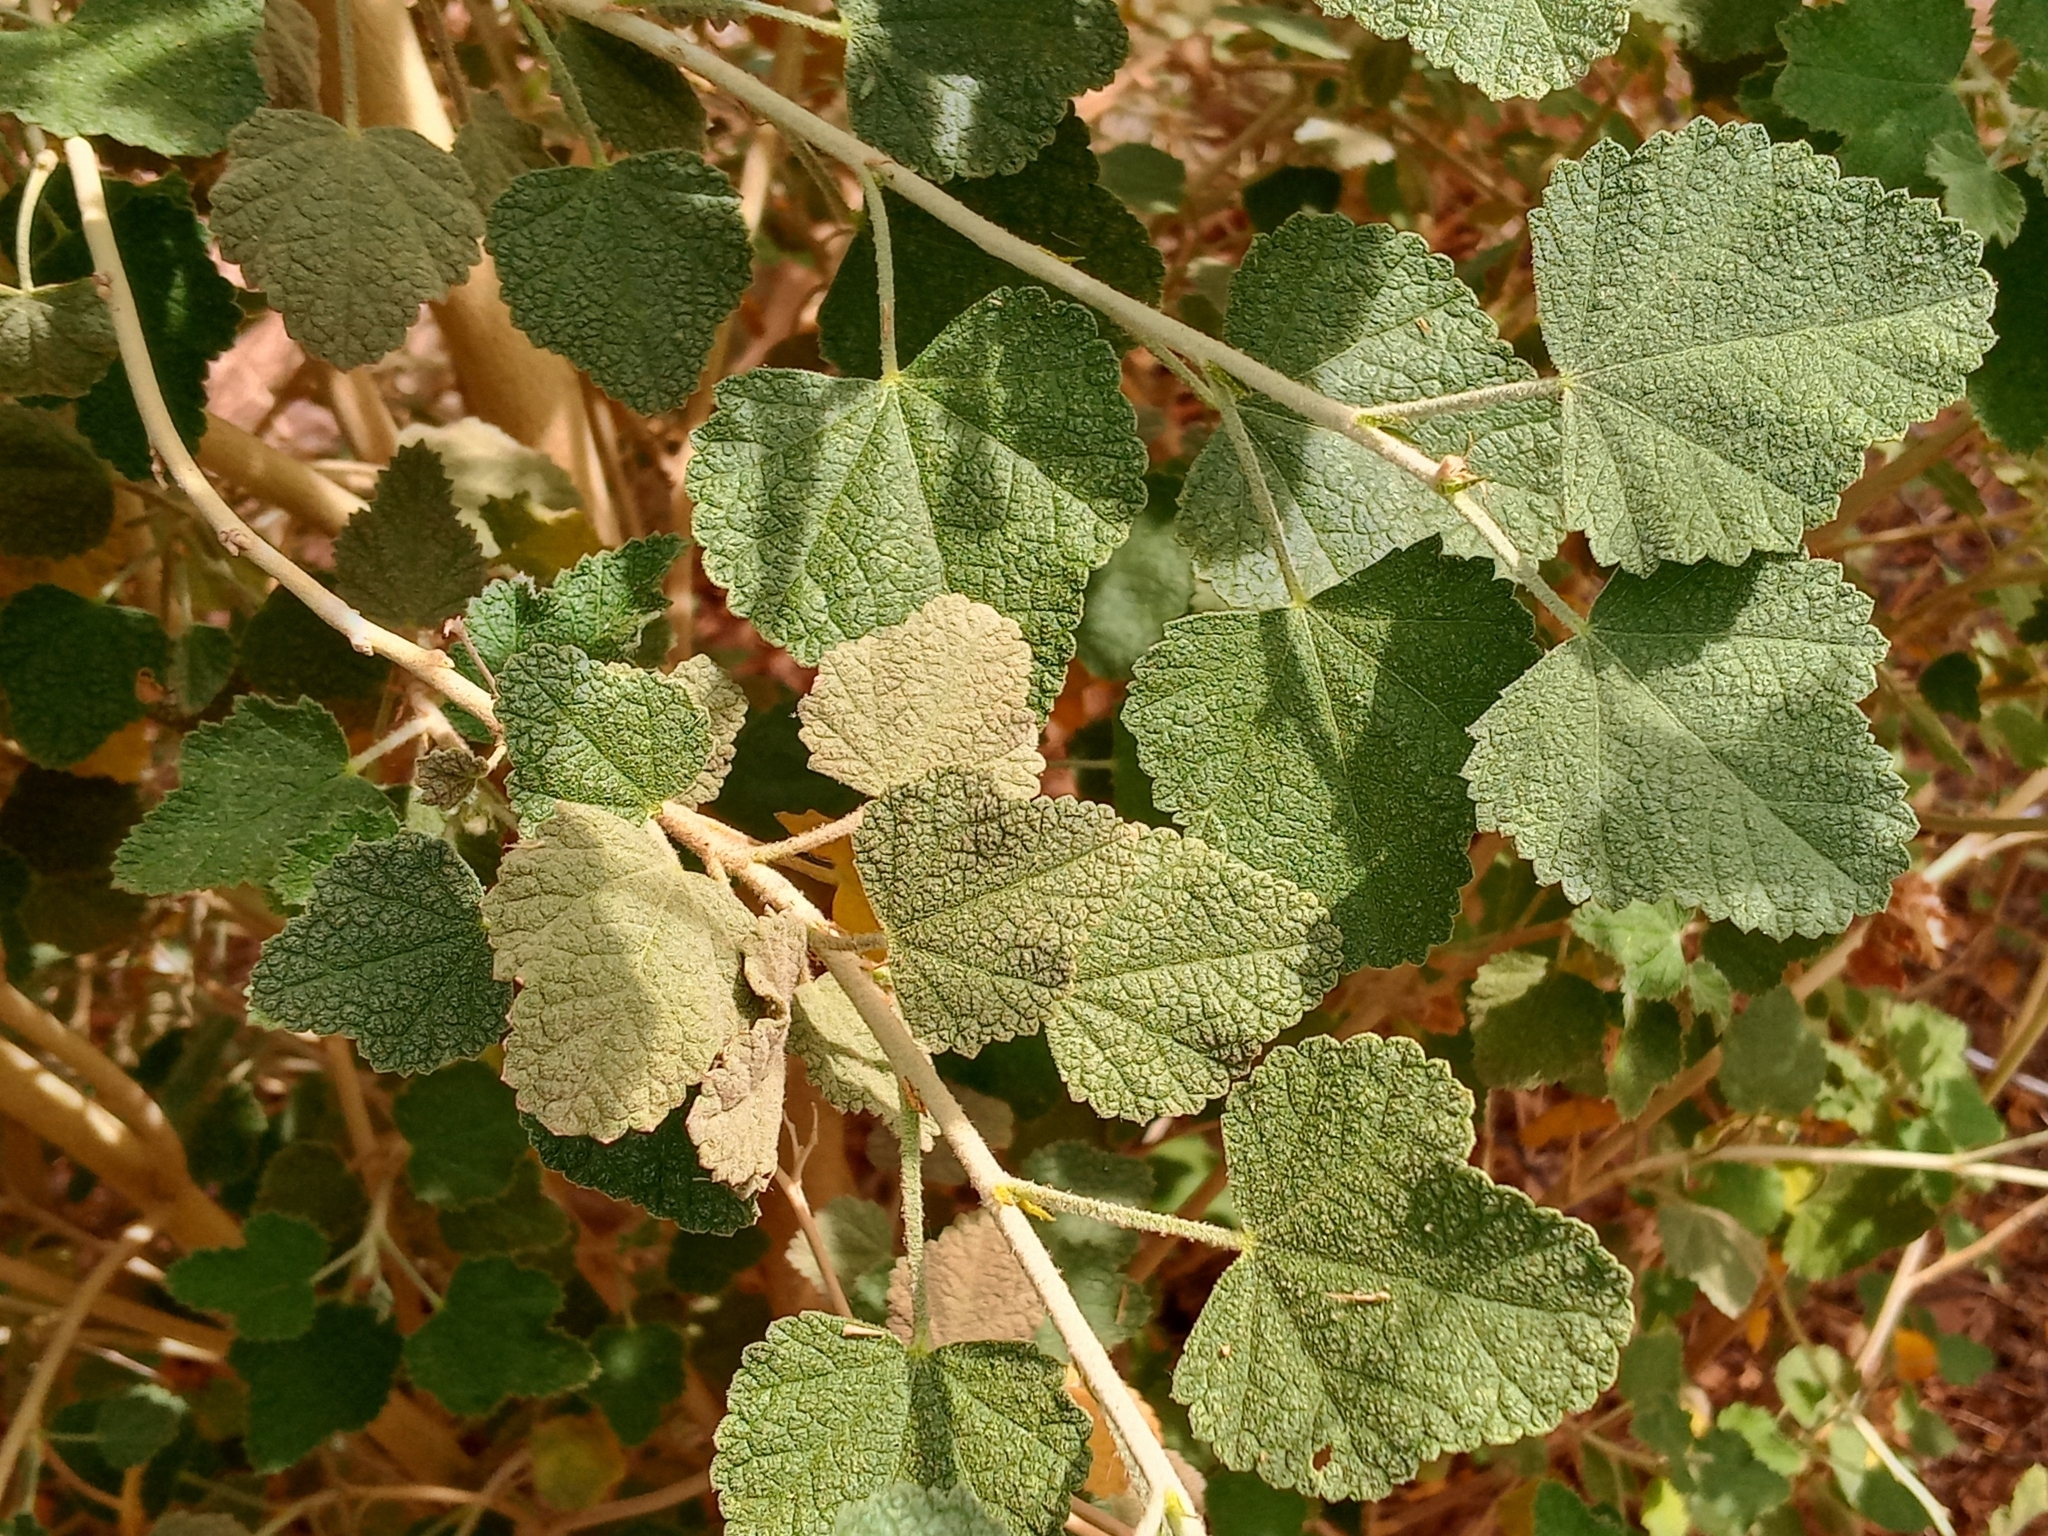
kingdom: Plantae
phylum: Tracheophyta
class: Magnoliopsida
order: Malvales
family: Malvaceae
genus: Malacothamnus
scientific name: Malacothamnus marrubioides
